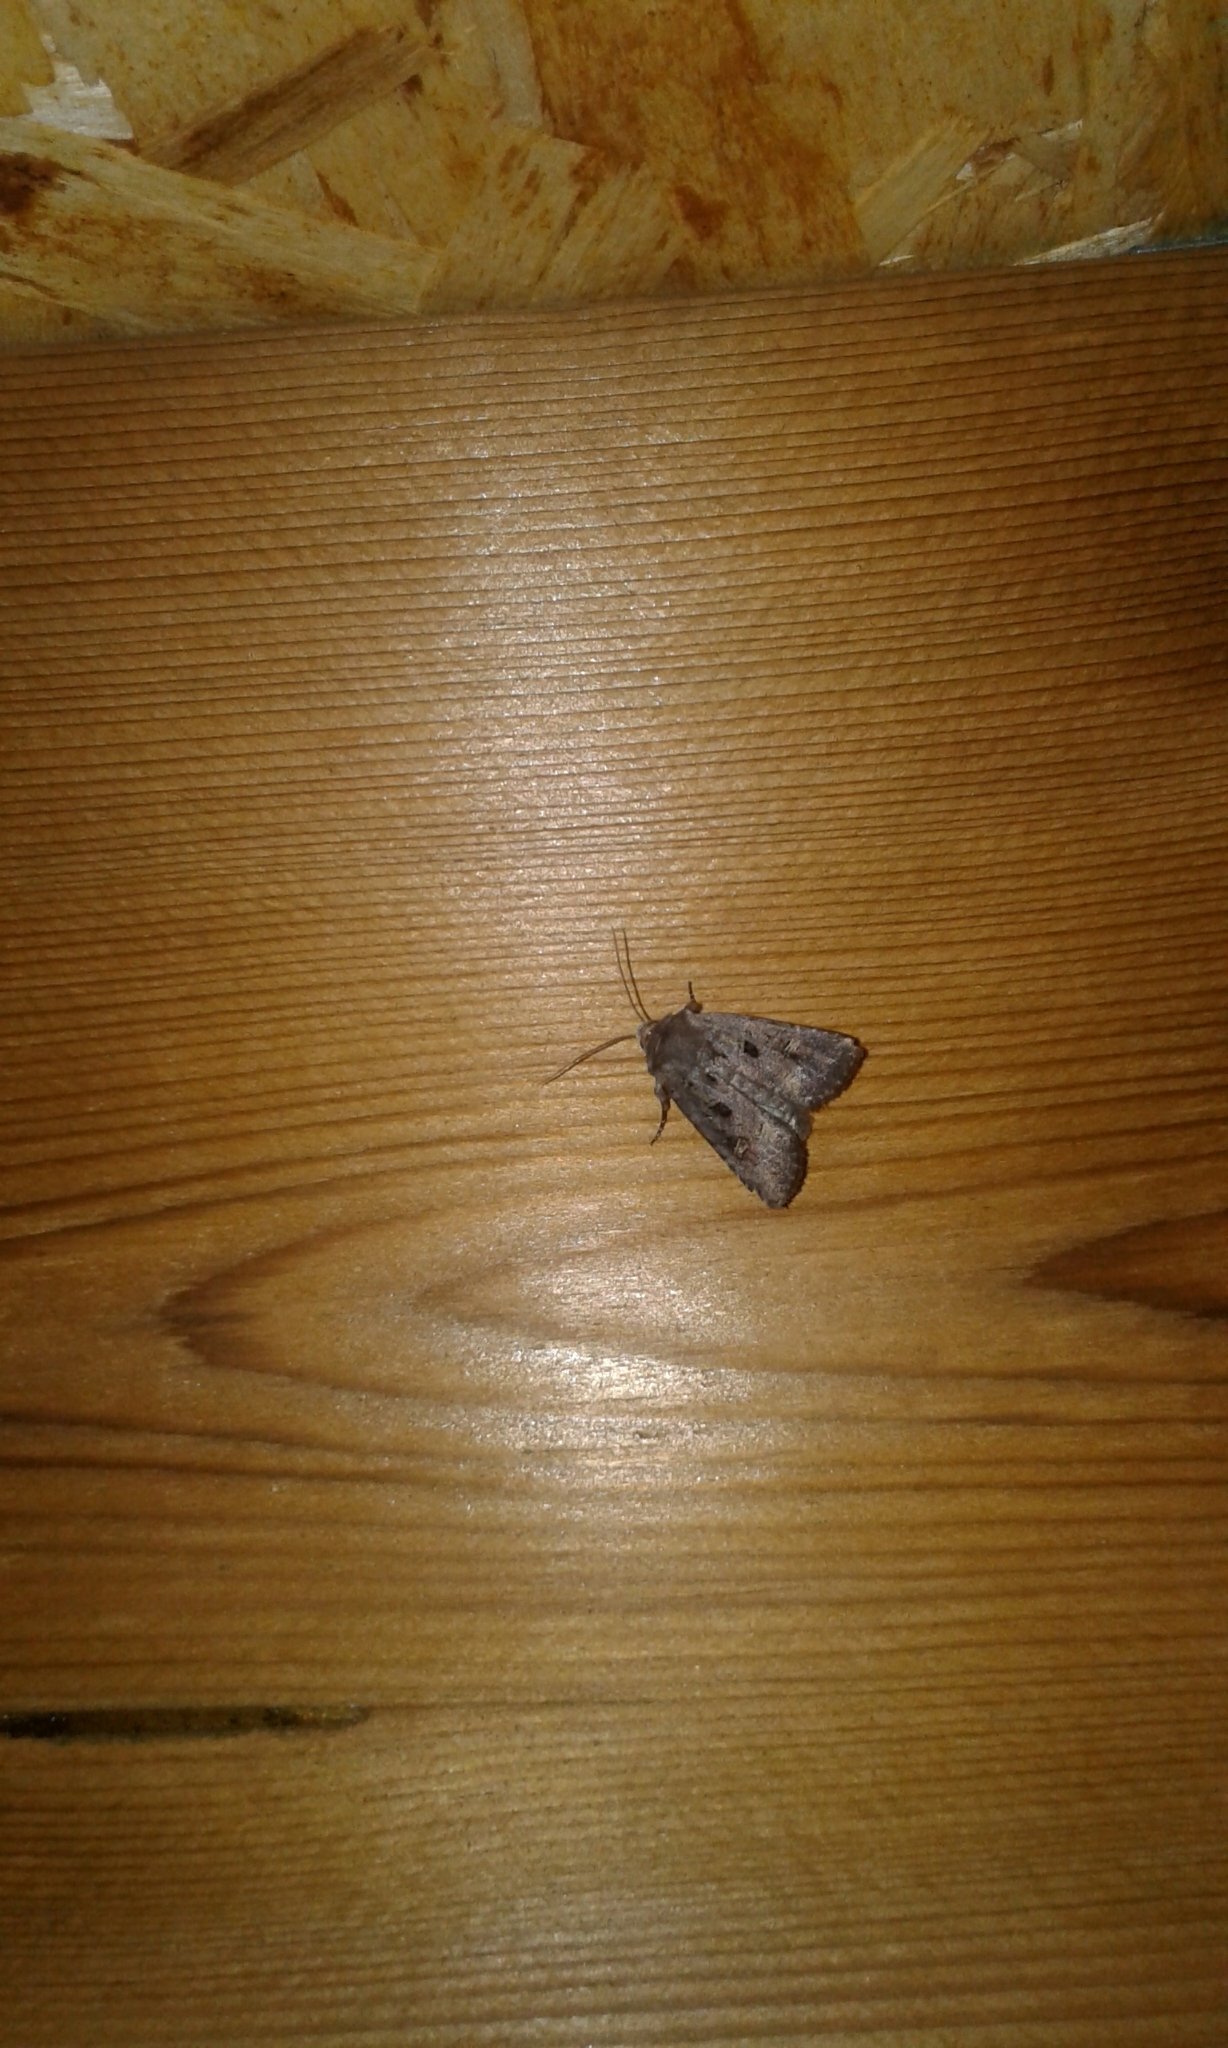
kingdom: Animalia
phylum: Arthropoda
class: Insecta
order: Lepidoptera
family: Noctuidae
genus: Lacinipolia
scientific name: Lacinipolia renigera
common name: Kidney-spotted minor
